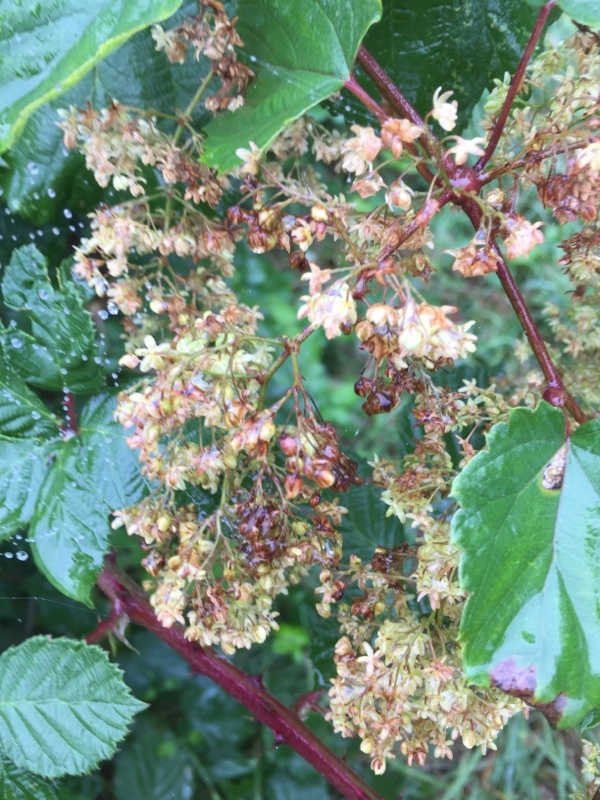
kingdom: Plantae
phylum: Tracheophyta
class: Magnoliopsida
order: Rosales
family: Cannabaceae
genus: Humulus
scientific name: Humulus lupulus
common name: Hop
